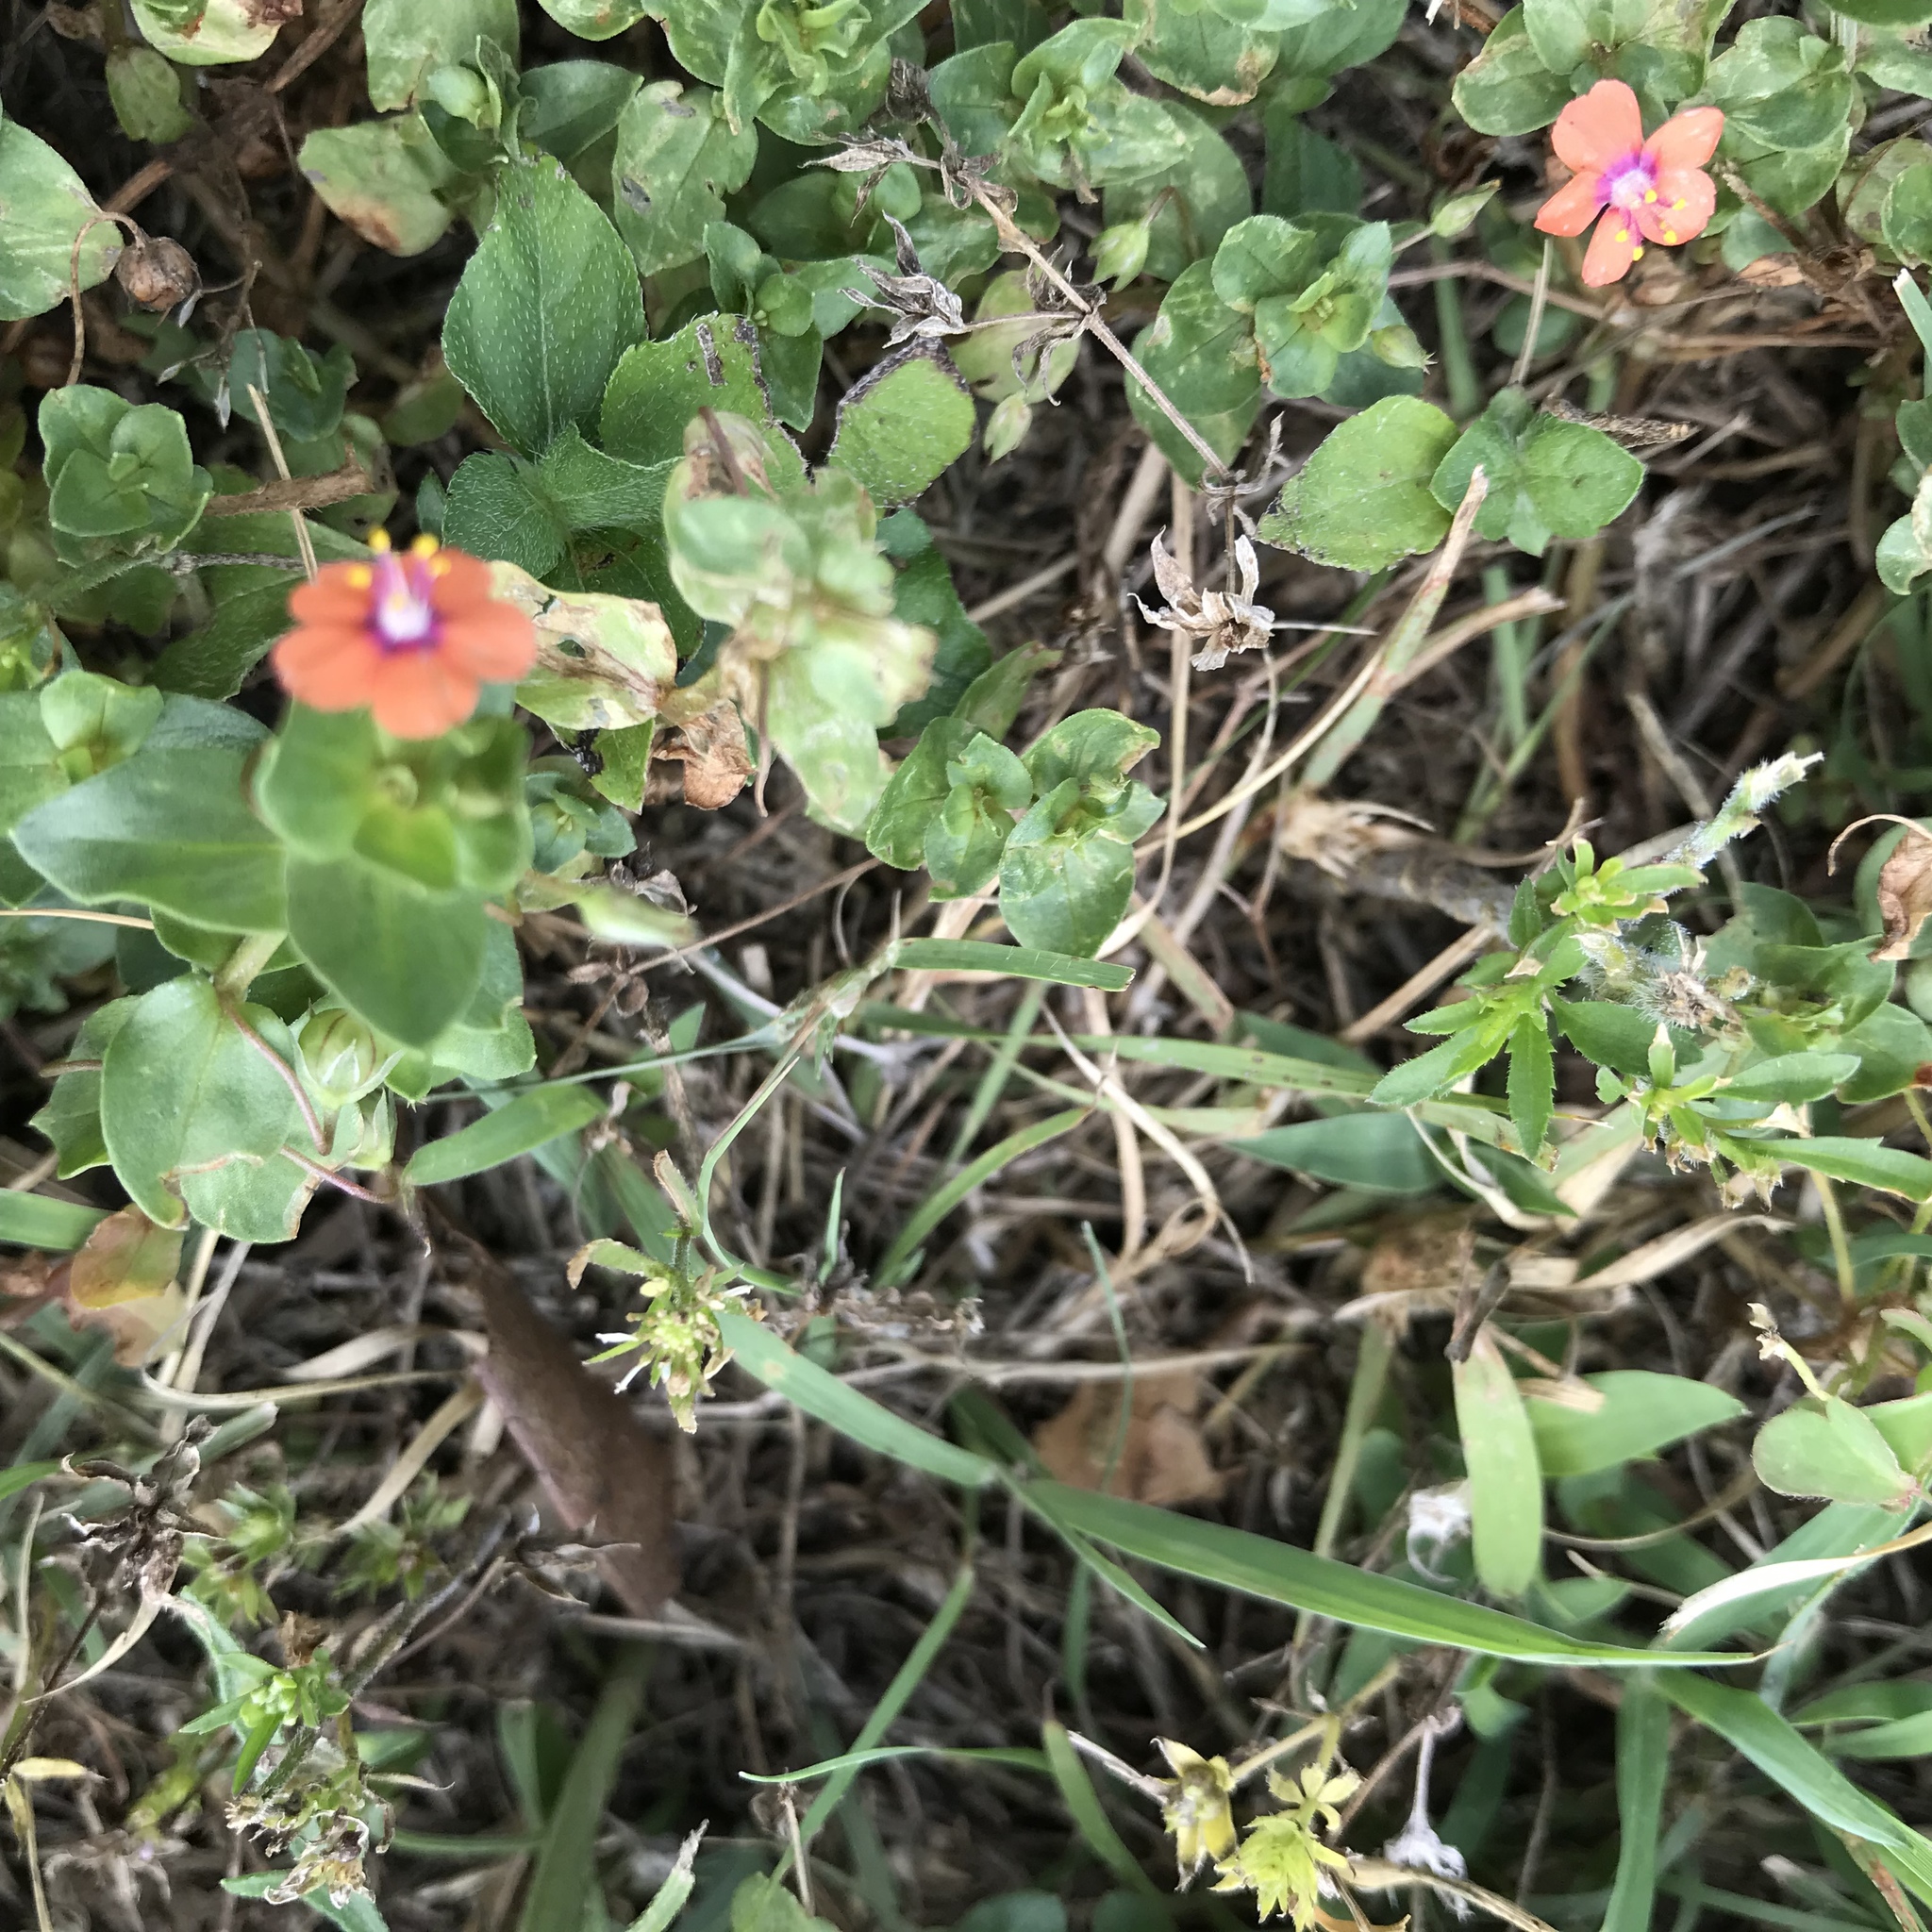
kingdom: Plantae
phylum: Tracheophyta
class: Magnoliopsida
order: Ericales
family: Primulaceae
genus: Lysimachia
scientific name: Lysimachia arvensis
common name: Scarlet pimpernel
